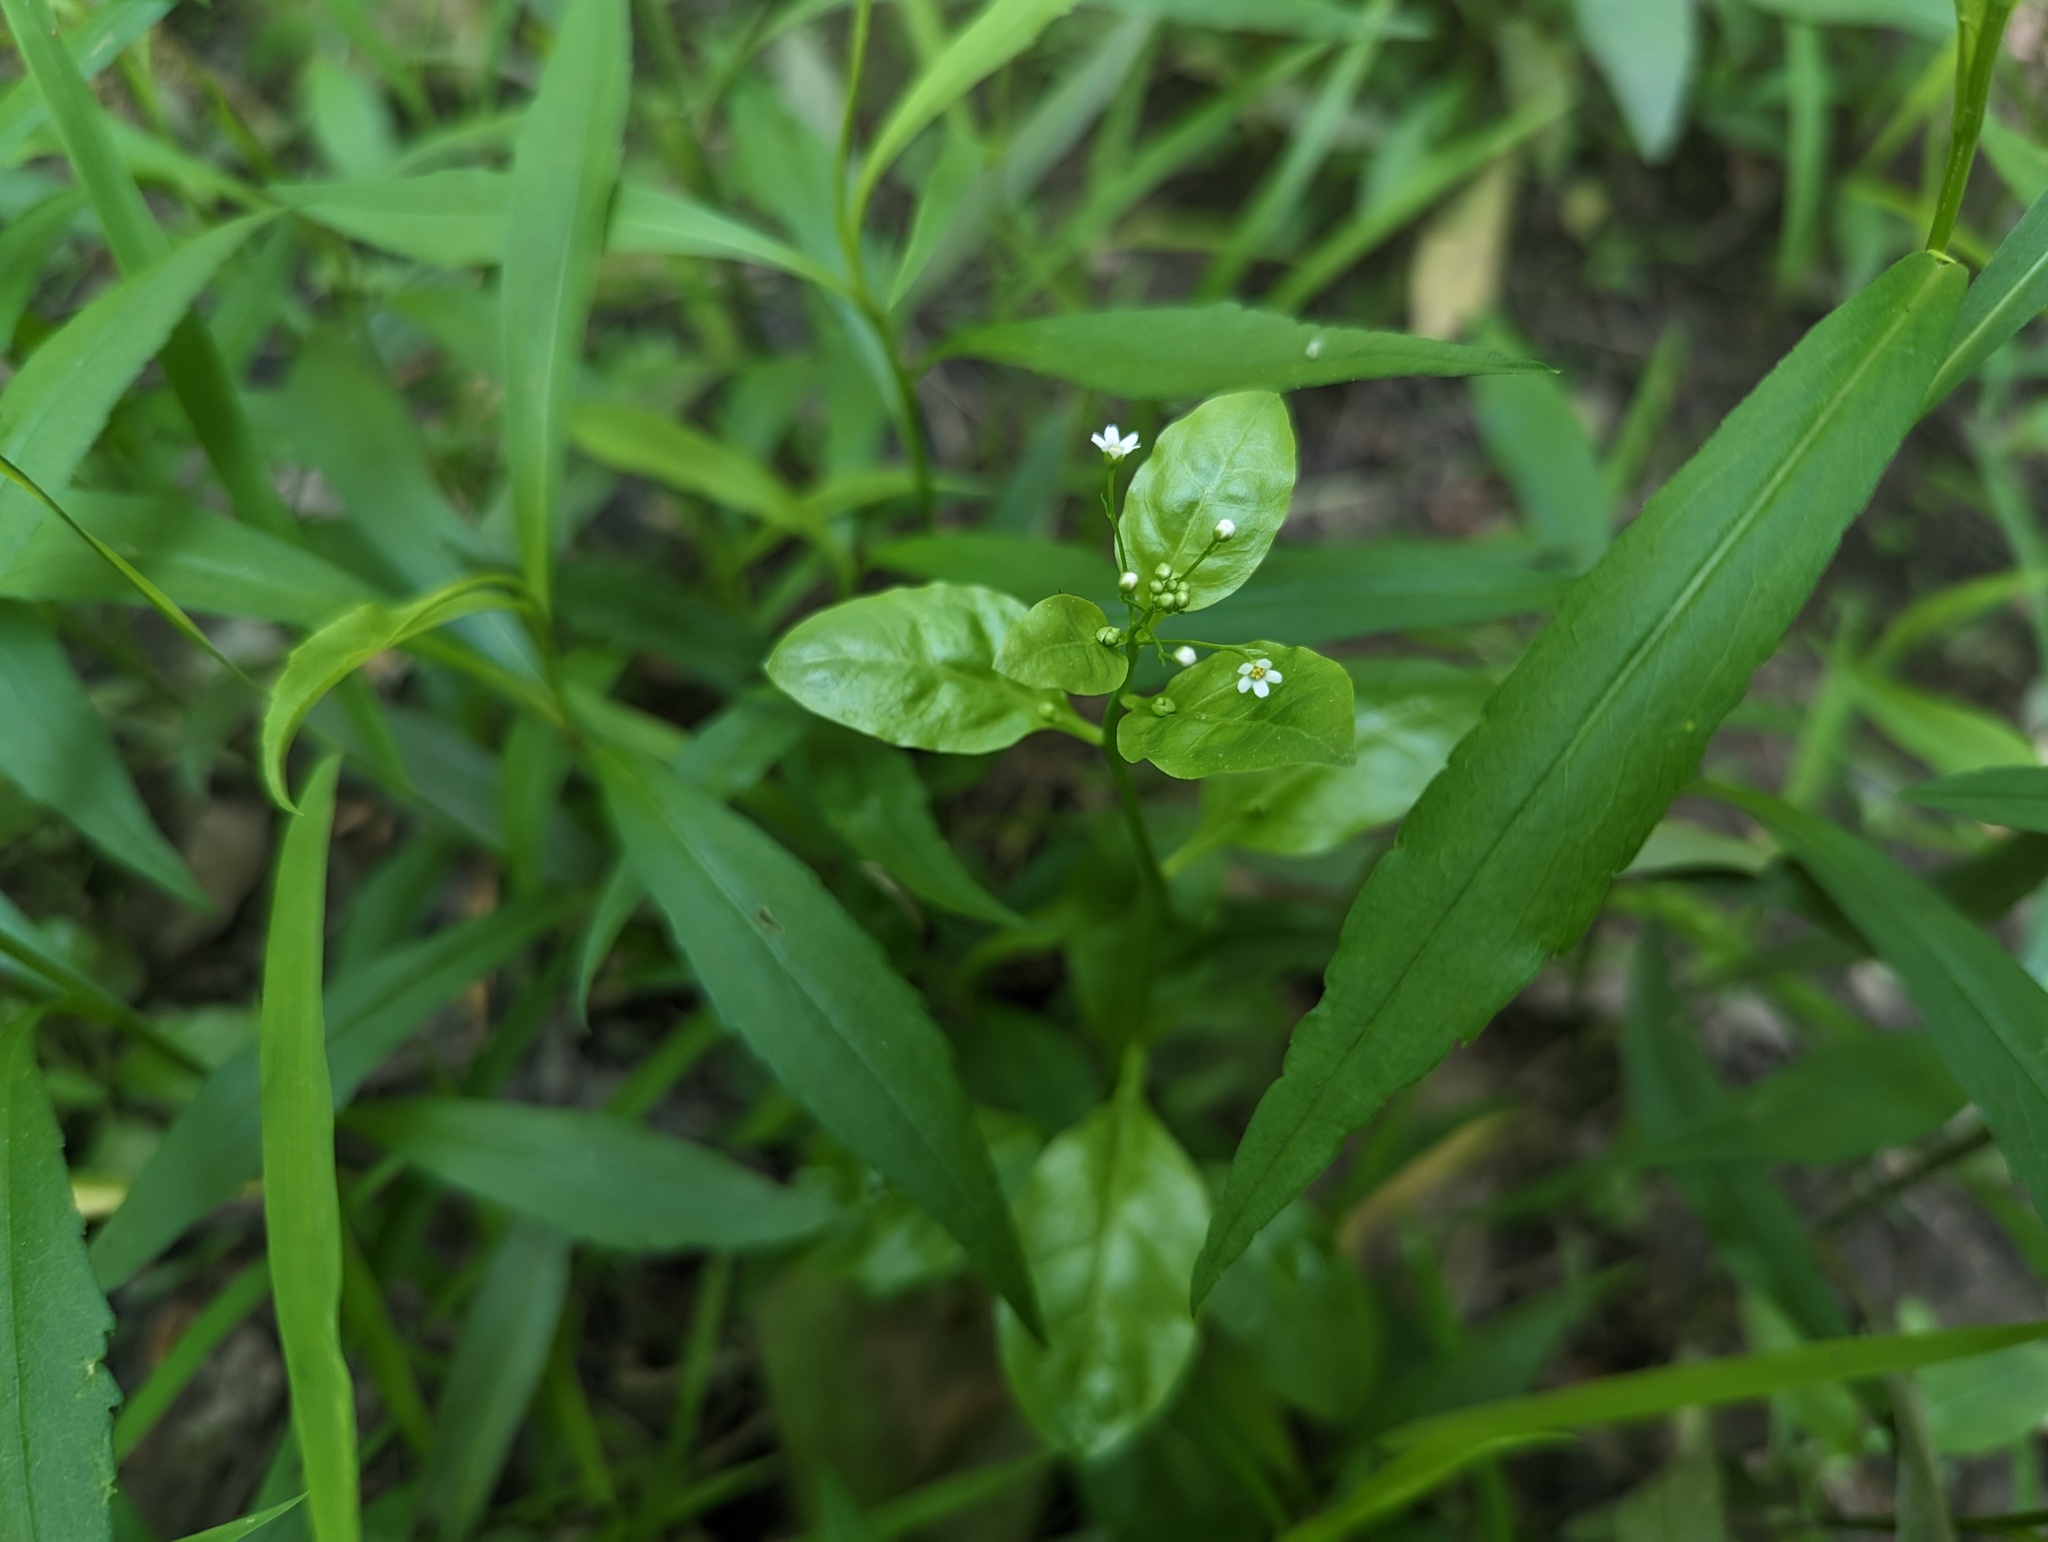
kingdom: Plantae
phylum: Tracheophyta
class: Magnoliopsida
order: Ericales
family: Primulaceae
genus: Samolus
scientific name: Samolus parviflorus
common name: False water pimpernel
